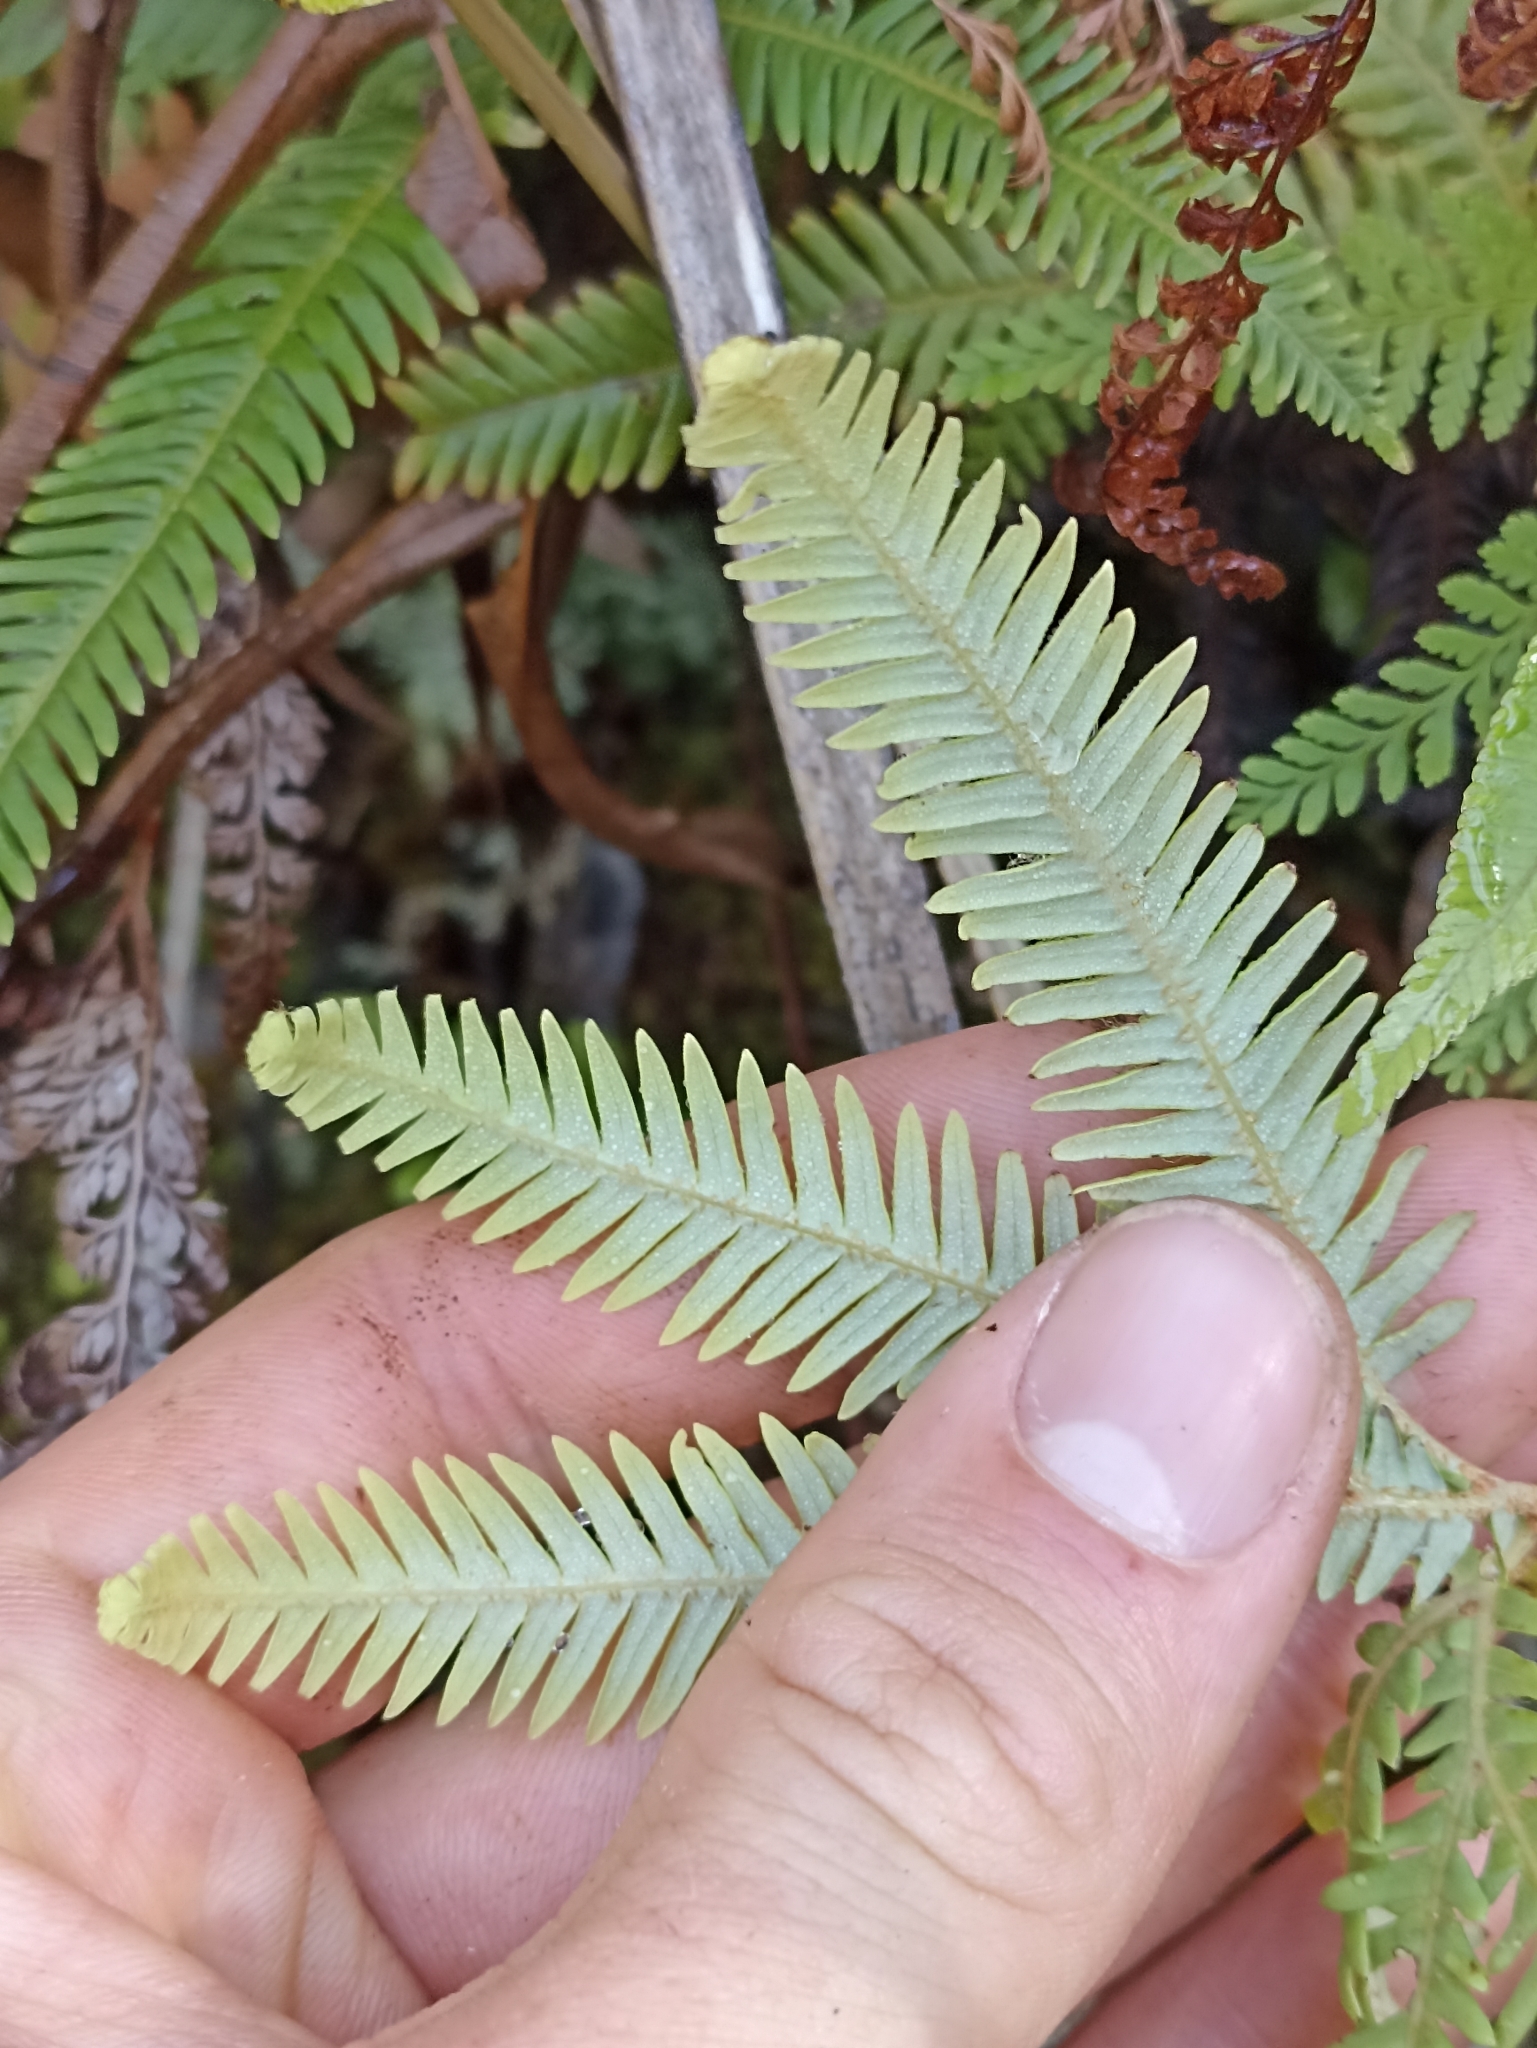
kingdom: Plantae
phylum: Tracheophyta
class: Polypodiopsida
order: Gleicheniales
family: Gleicheniaceae
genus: Sticherus
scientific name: Sticherus cunninghamii
